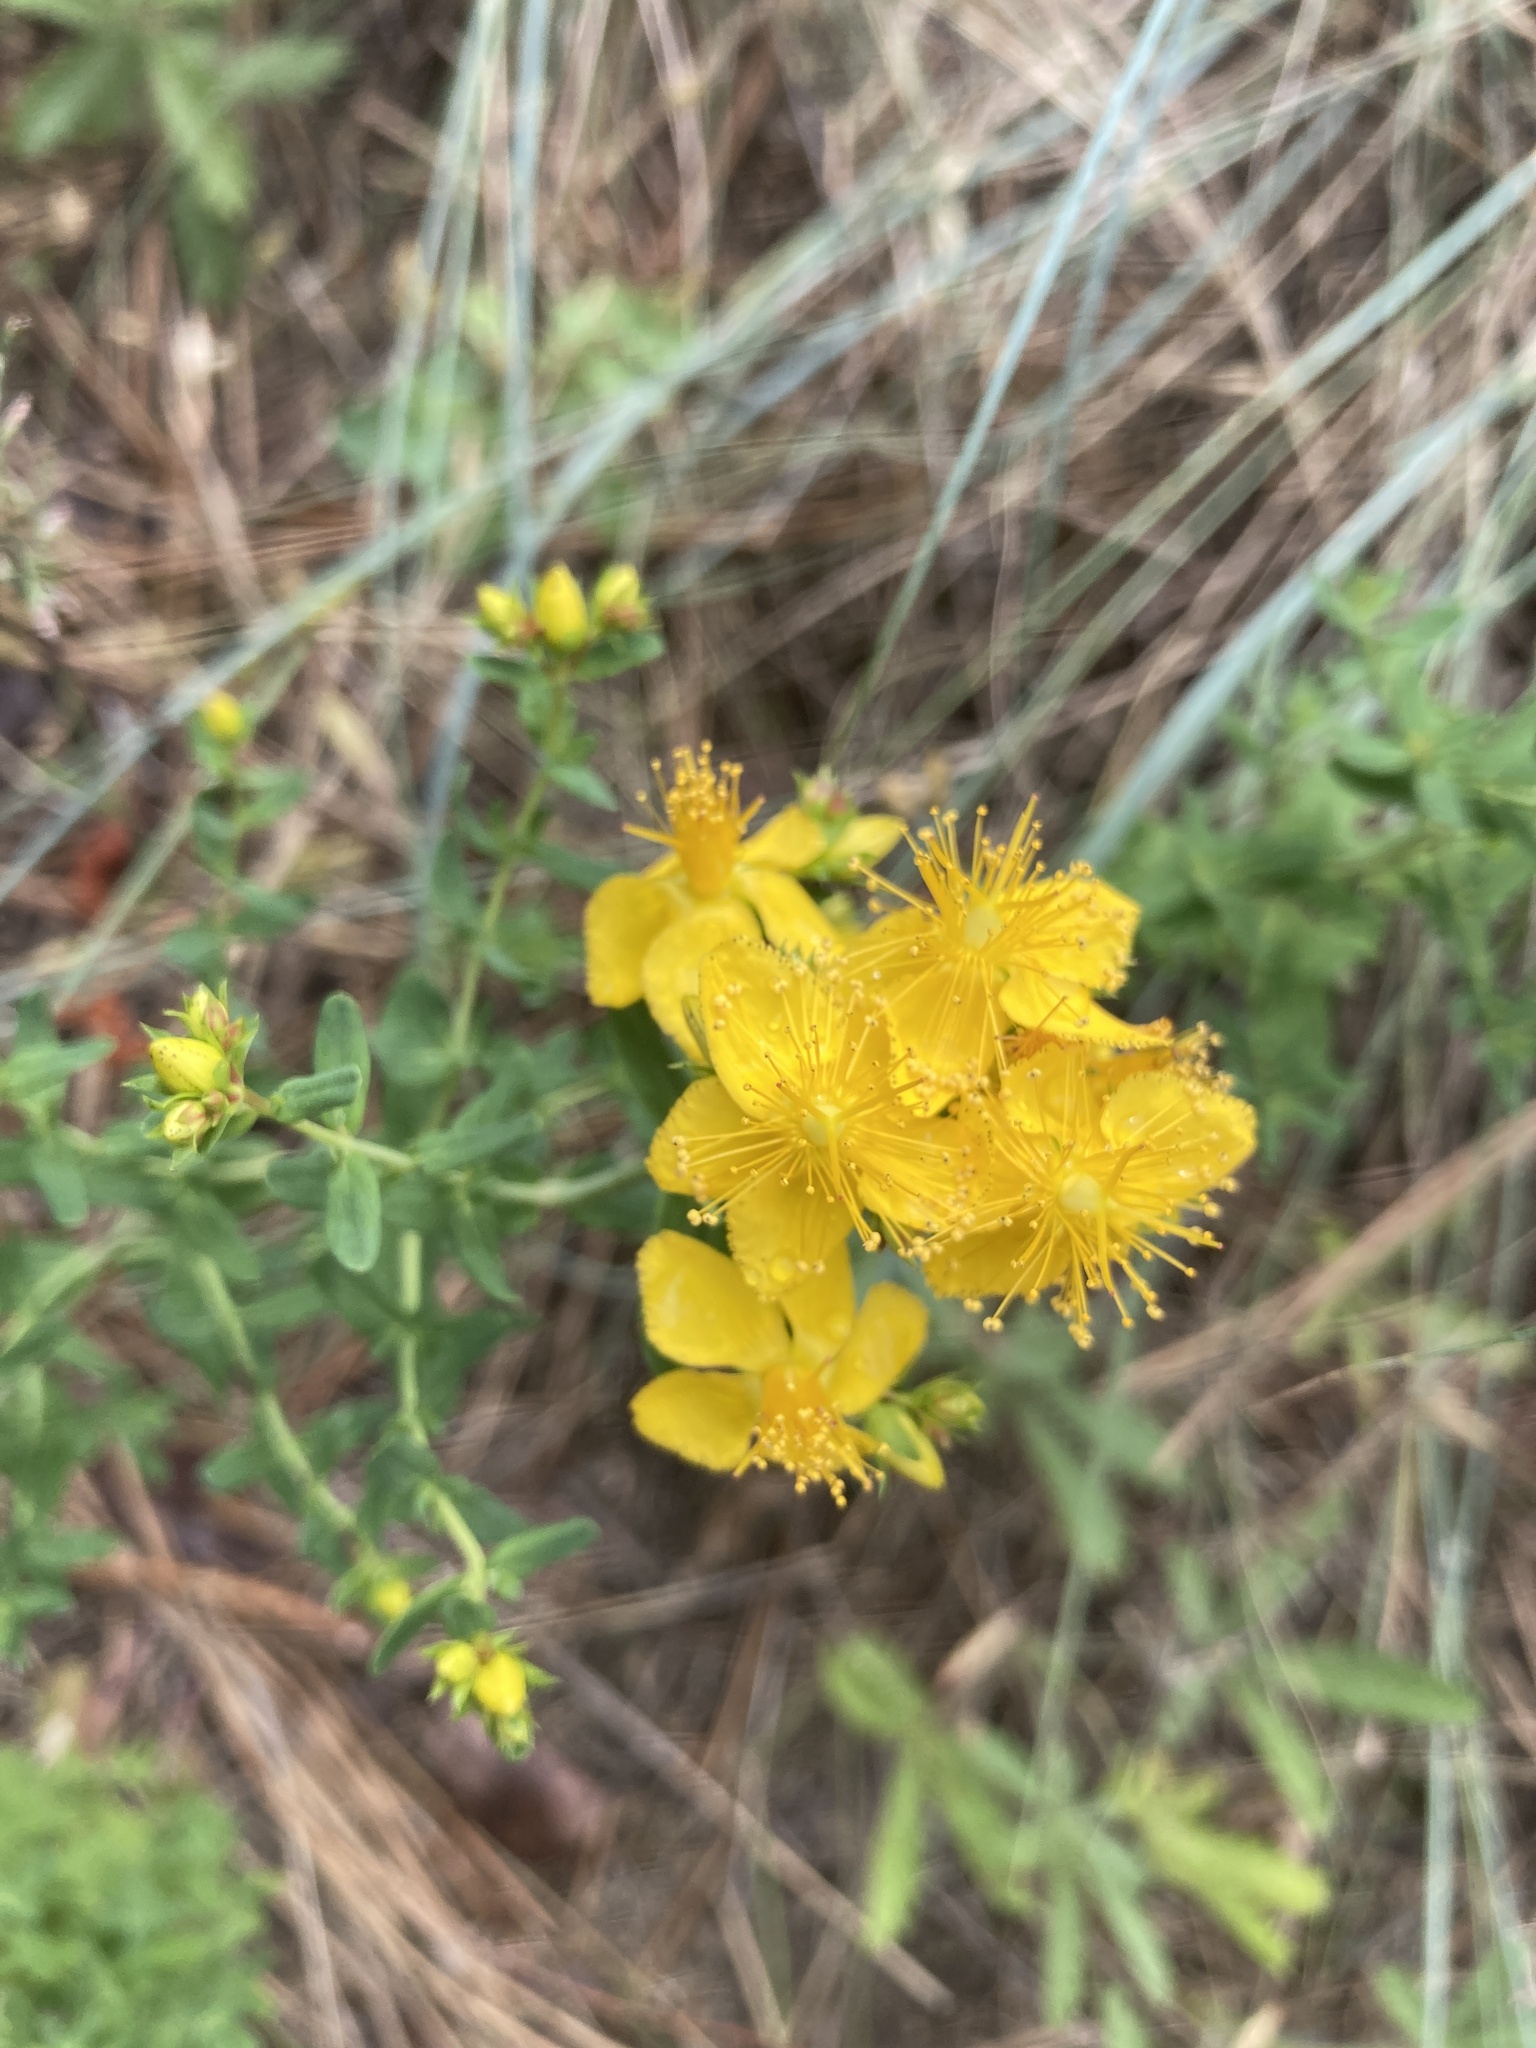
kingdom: Plantae
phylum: Tracheophyta
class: Magnoliopsida
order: Malpighiales
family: Hypericaceae
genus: Hypericum
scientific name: Hypericum perforatum
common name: Common st. johnswort
